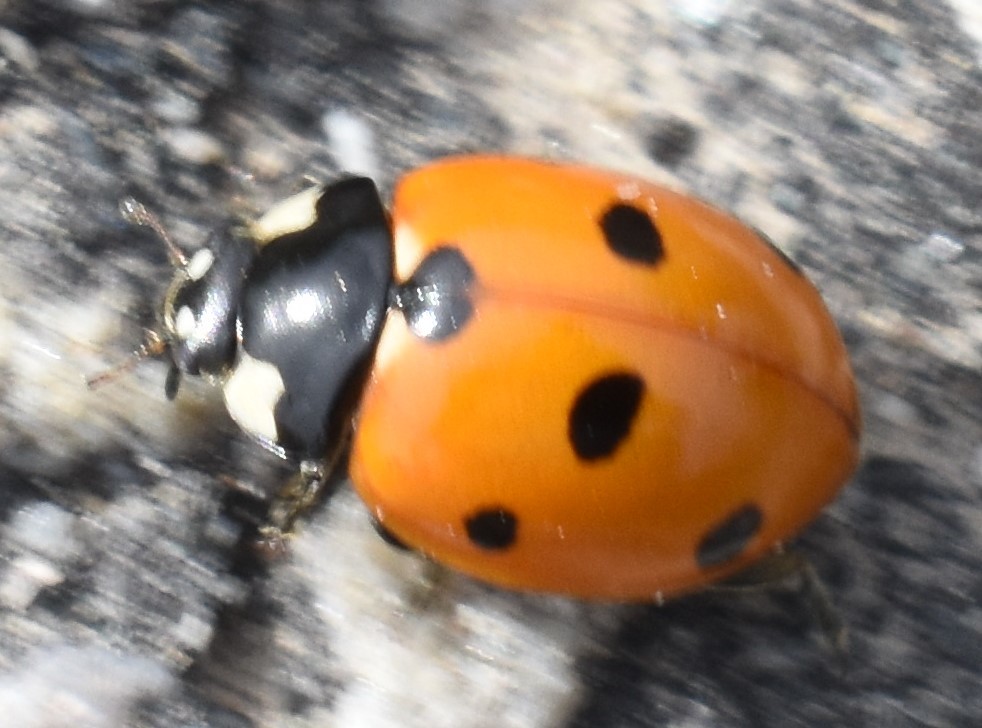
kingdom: Animalia
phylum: Arthropoda
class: Insecta
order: Coleoptera
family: Coccinellidae
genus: Coccinella
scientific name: Coccinella septempunctata
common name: Sevenspotted lady beetle
